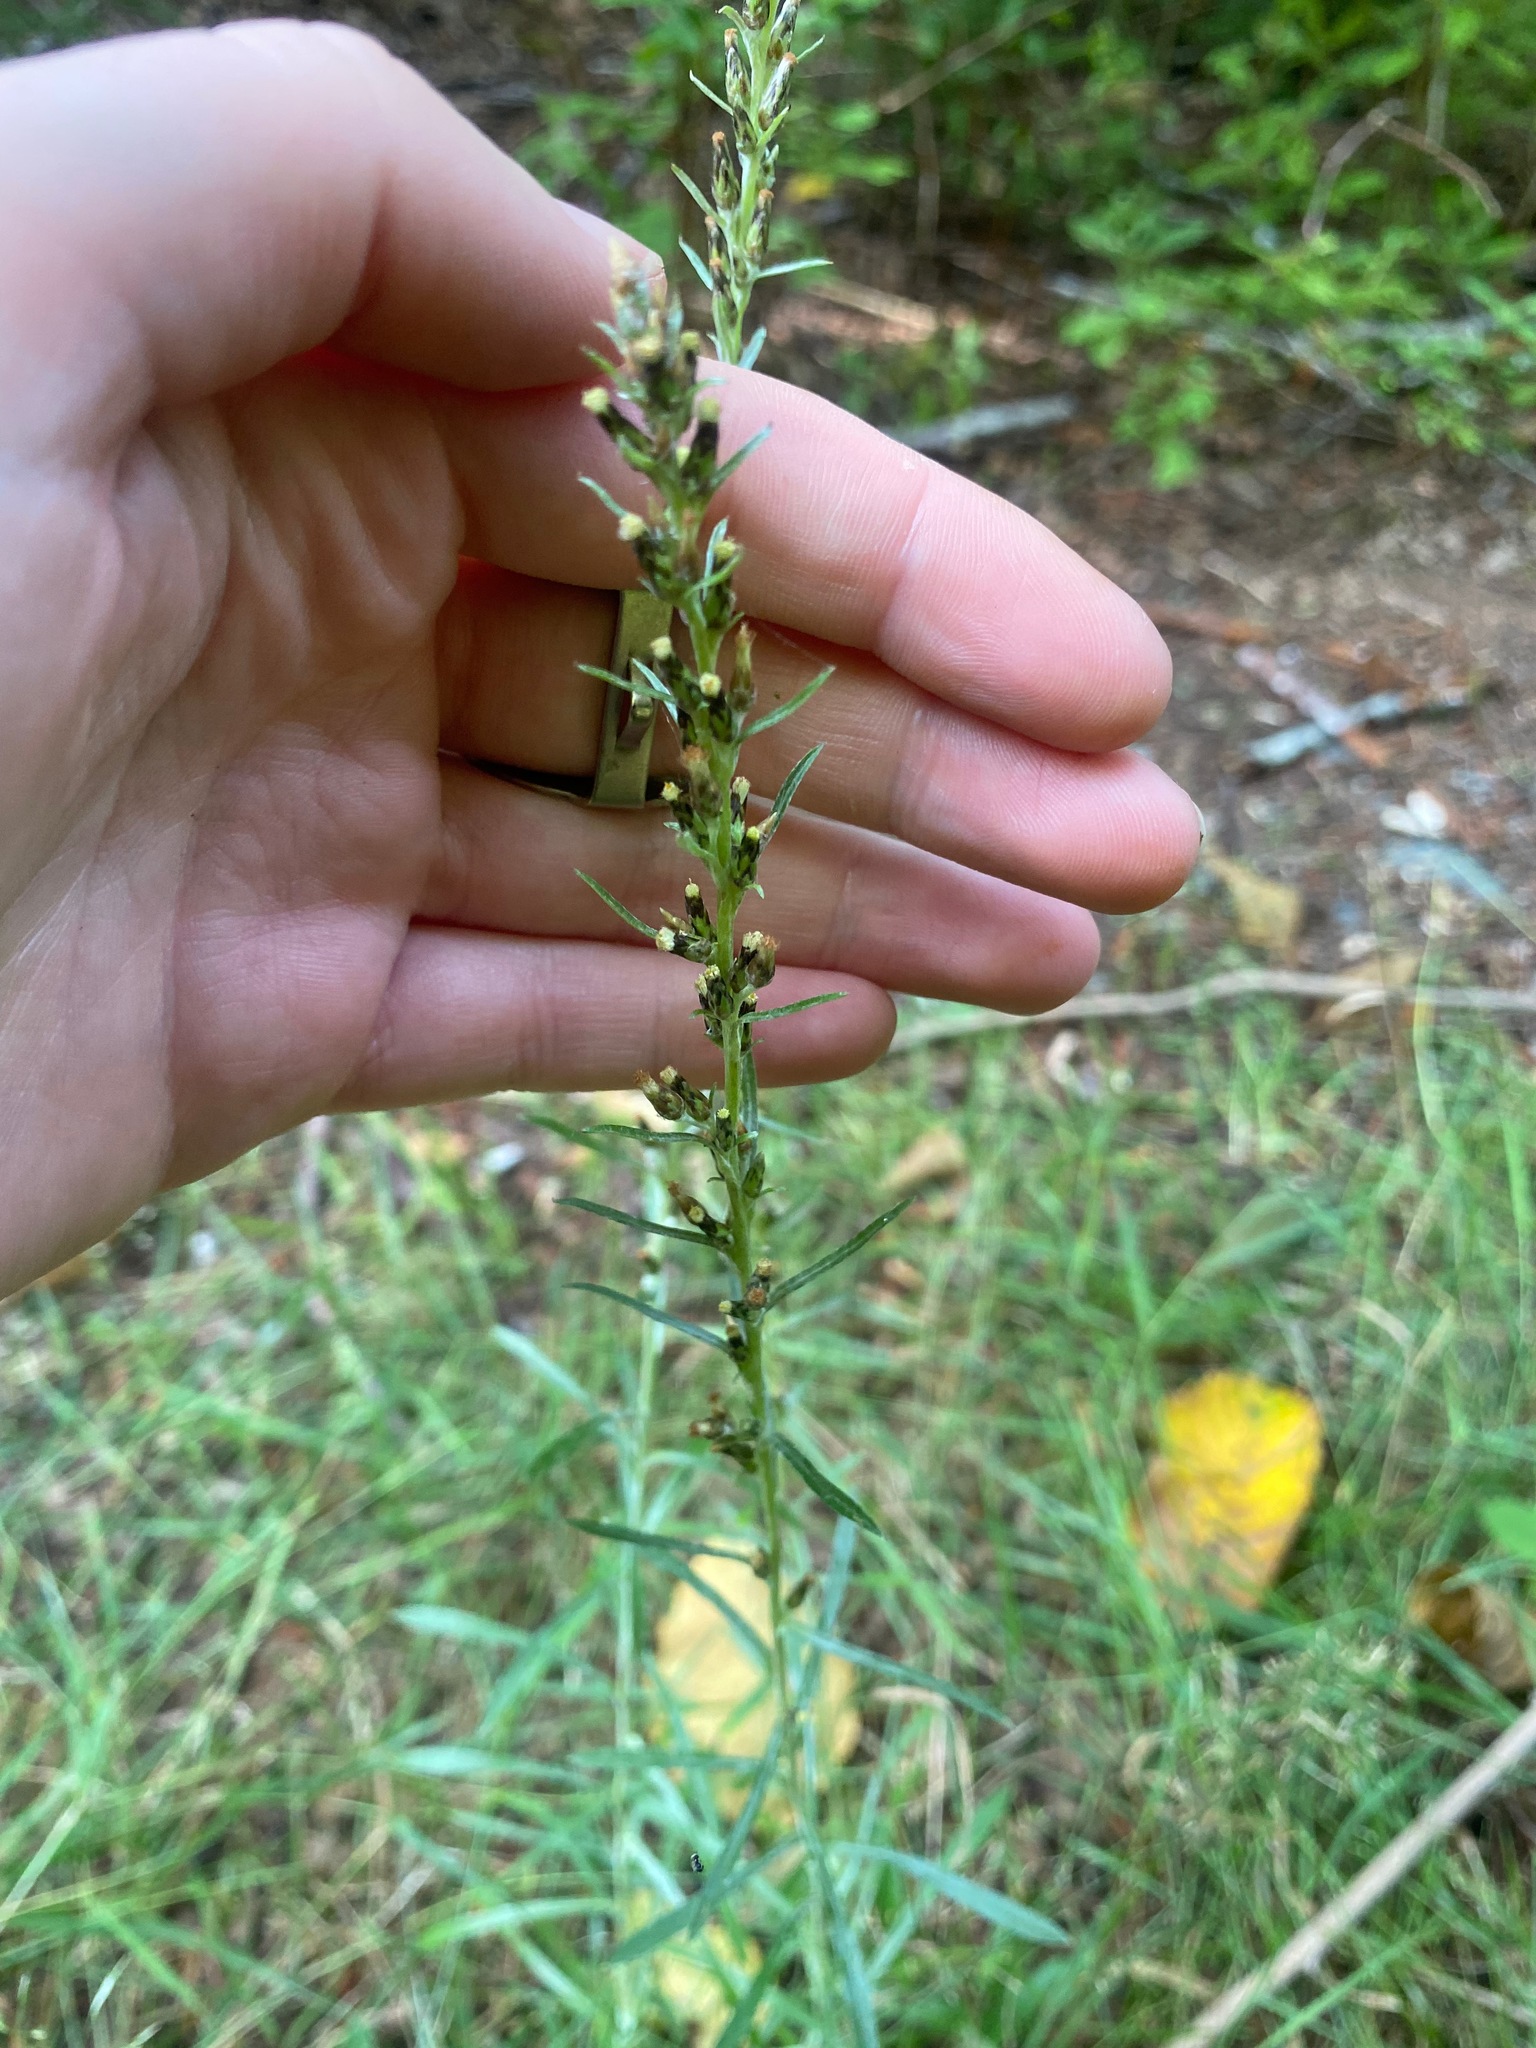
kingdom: Plantae
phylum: Tracheophyta
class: Magnoliopsida
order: Asterales
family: Asteraceae
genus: Omalotheca
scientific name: Omalotheca sylvatica
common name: Heath cudweed
